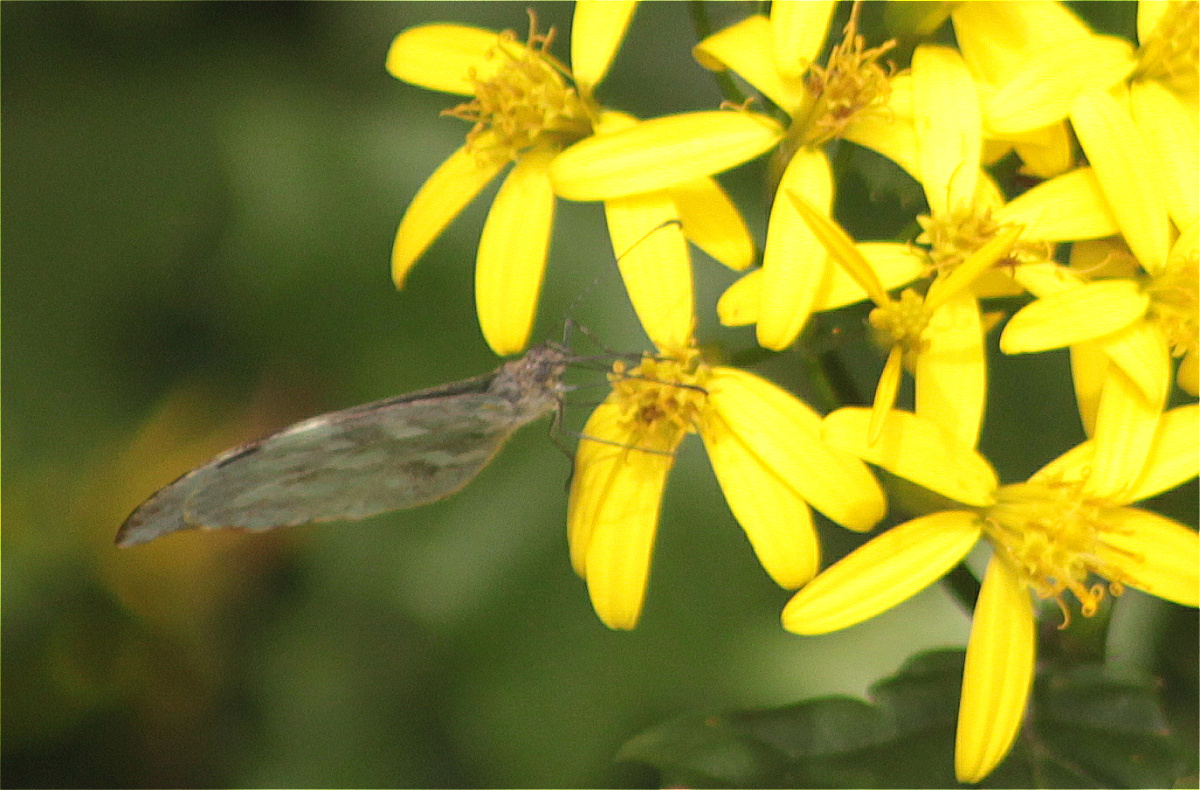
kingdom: Animalia
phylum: Arthropoda
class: Insecta
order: Lepidoptera
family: Pieridae
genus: Lieinix
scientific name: Lieinix nemesis
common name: Frosted mimic-white
